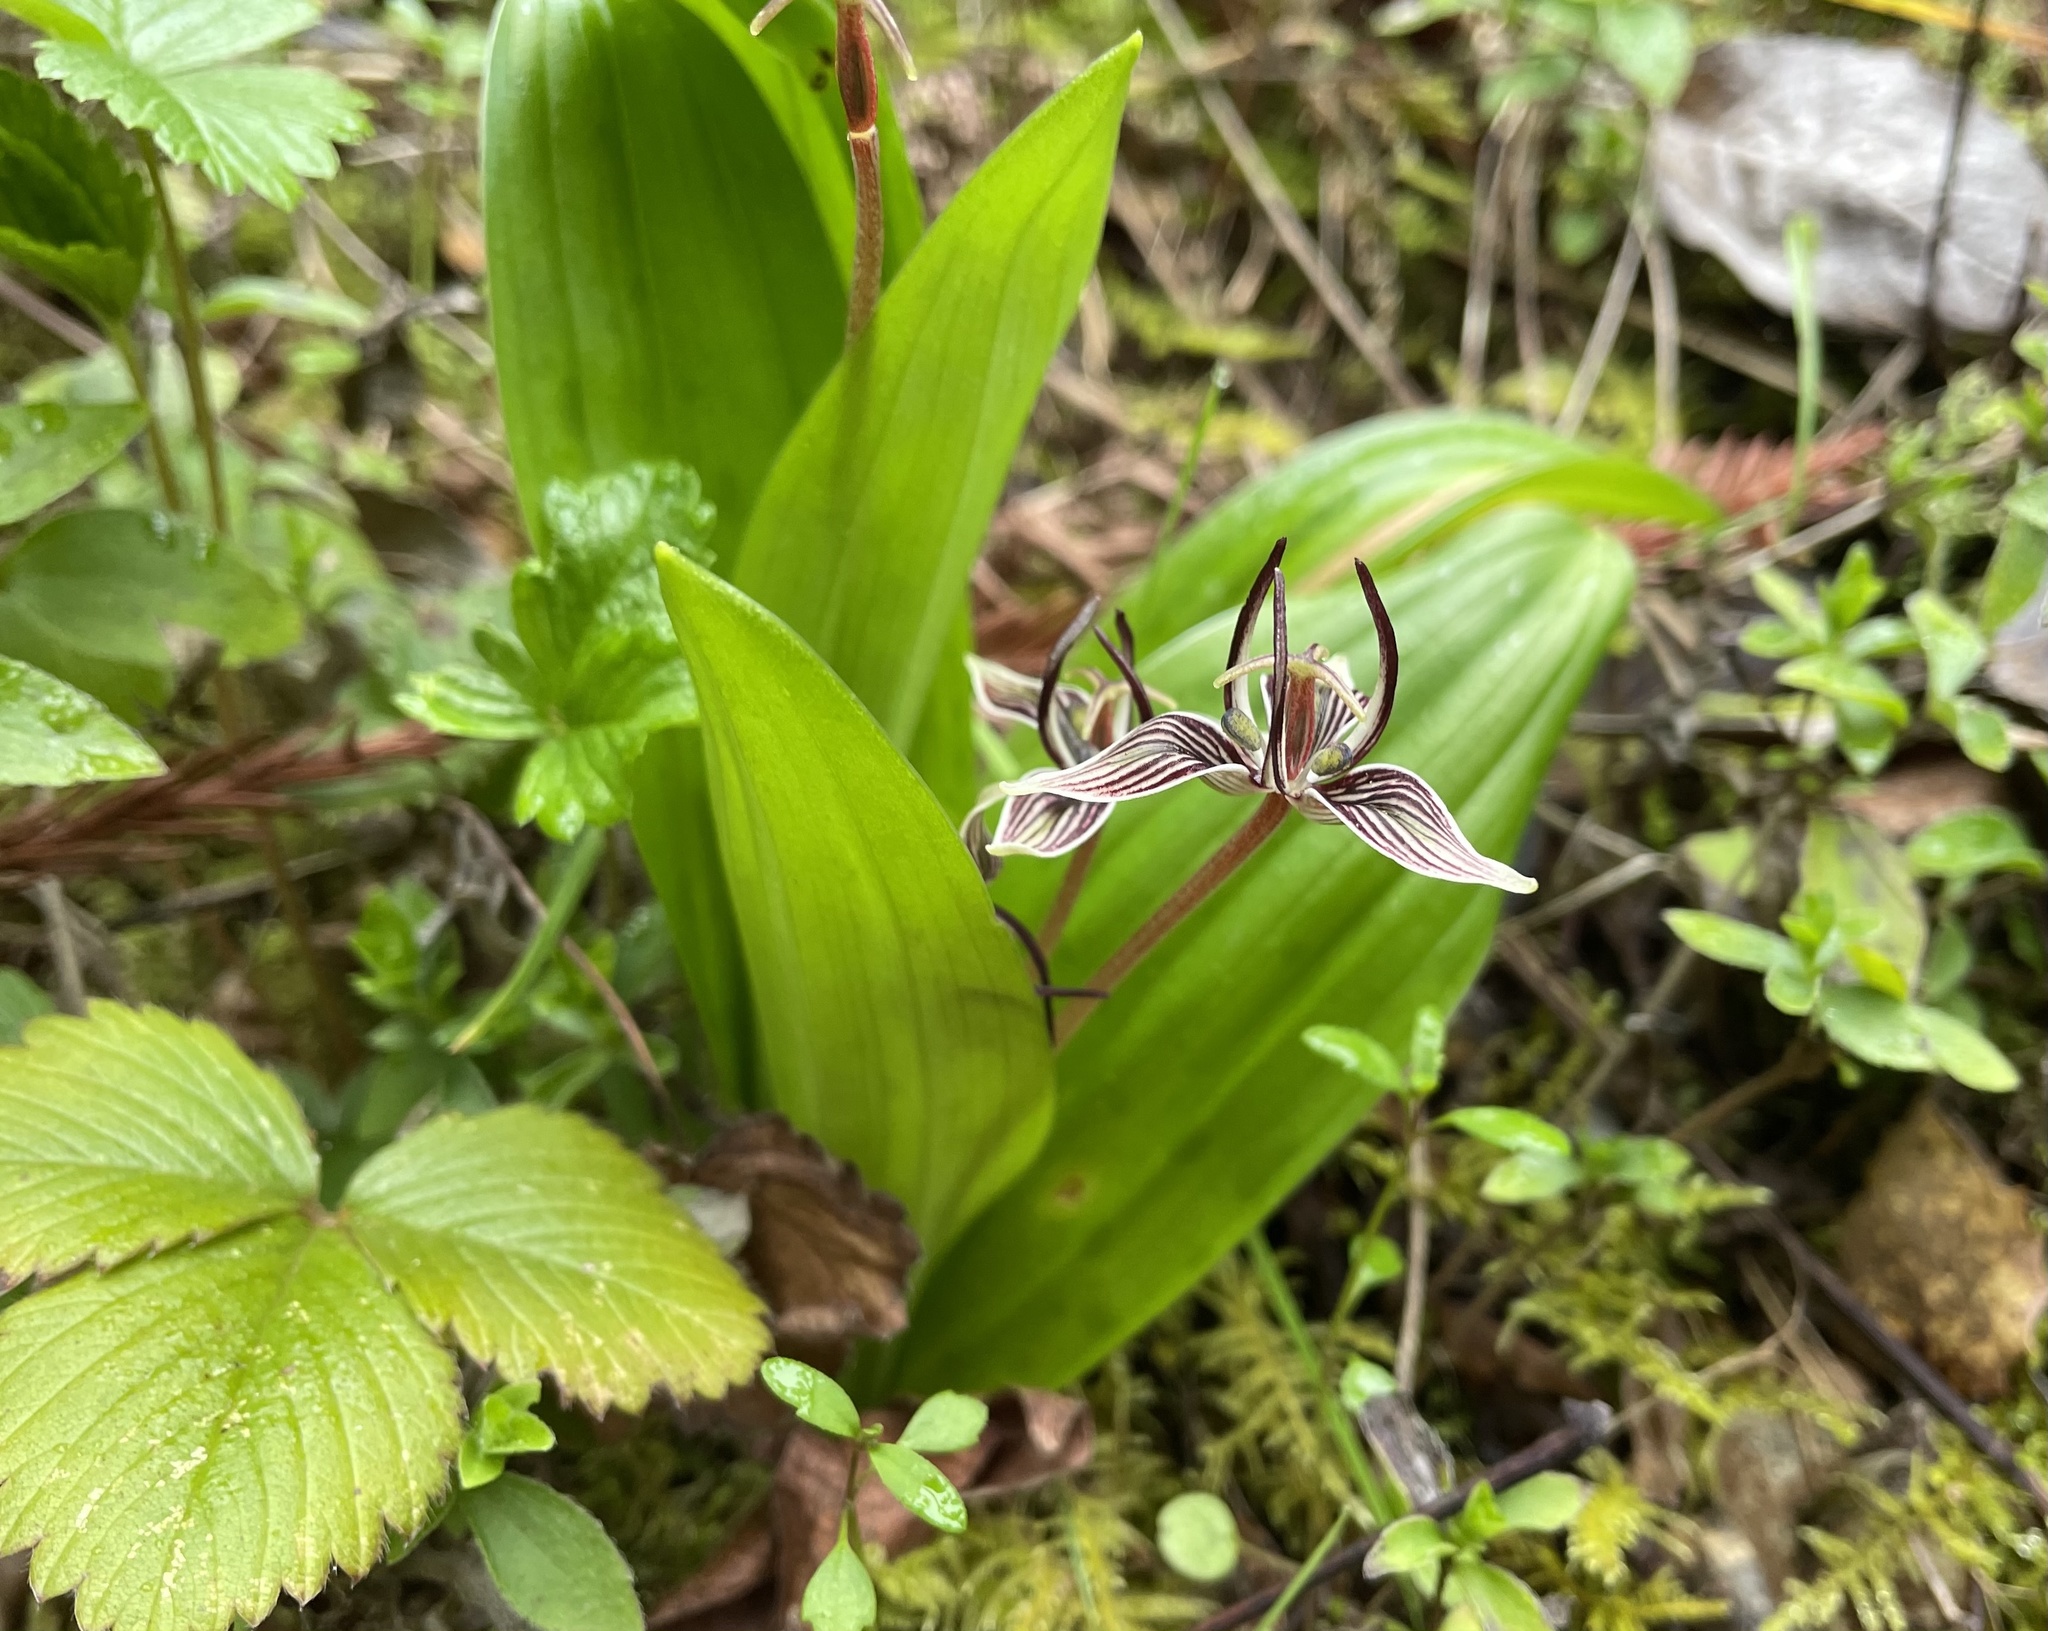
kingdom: Plantae
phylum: Tracheophyta
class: Liliopsida
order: Liliales
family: Liliaceae
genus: Scoliopus
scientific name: Scoliopus bigelovii
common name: Foetid adder's-tongue
